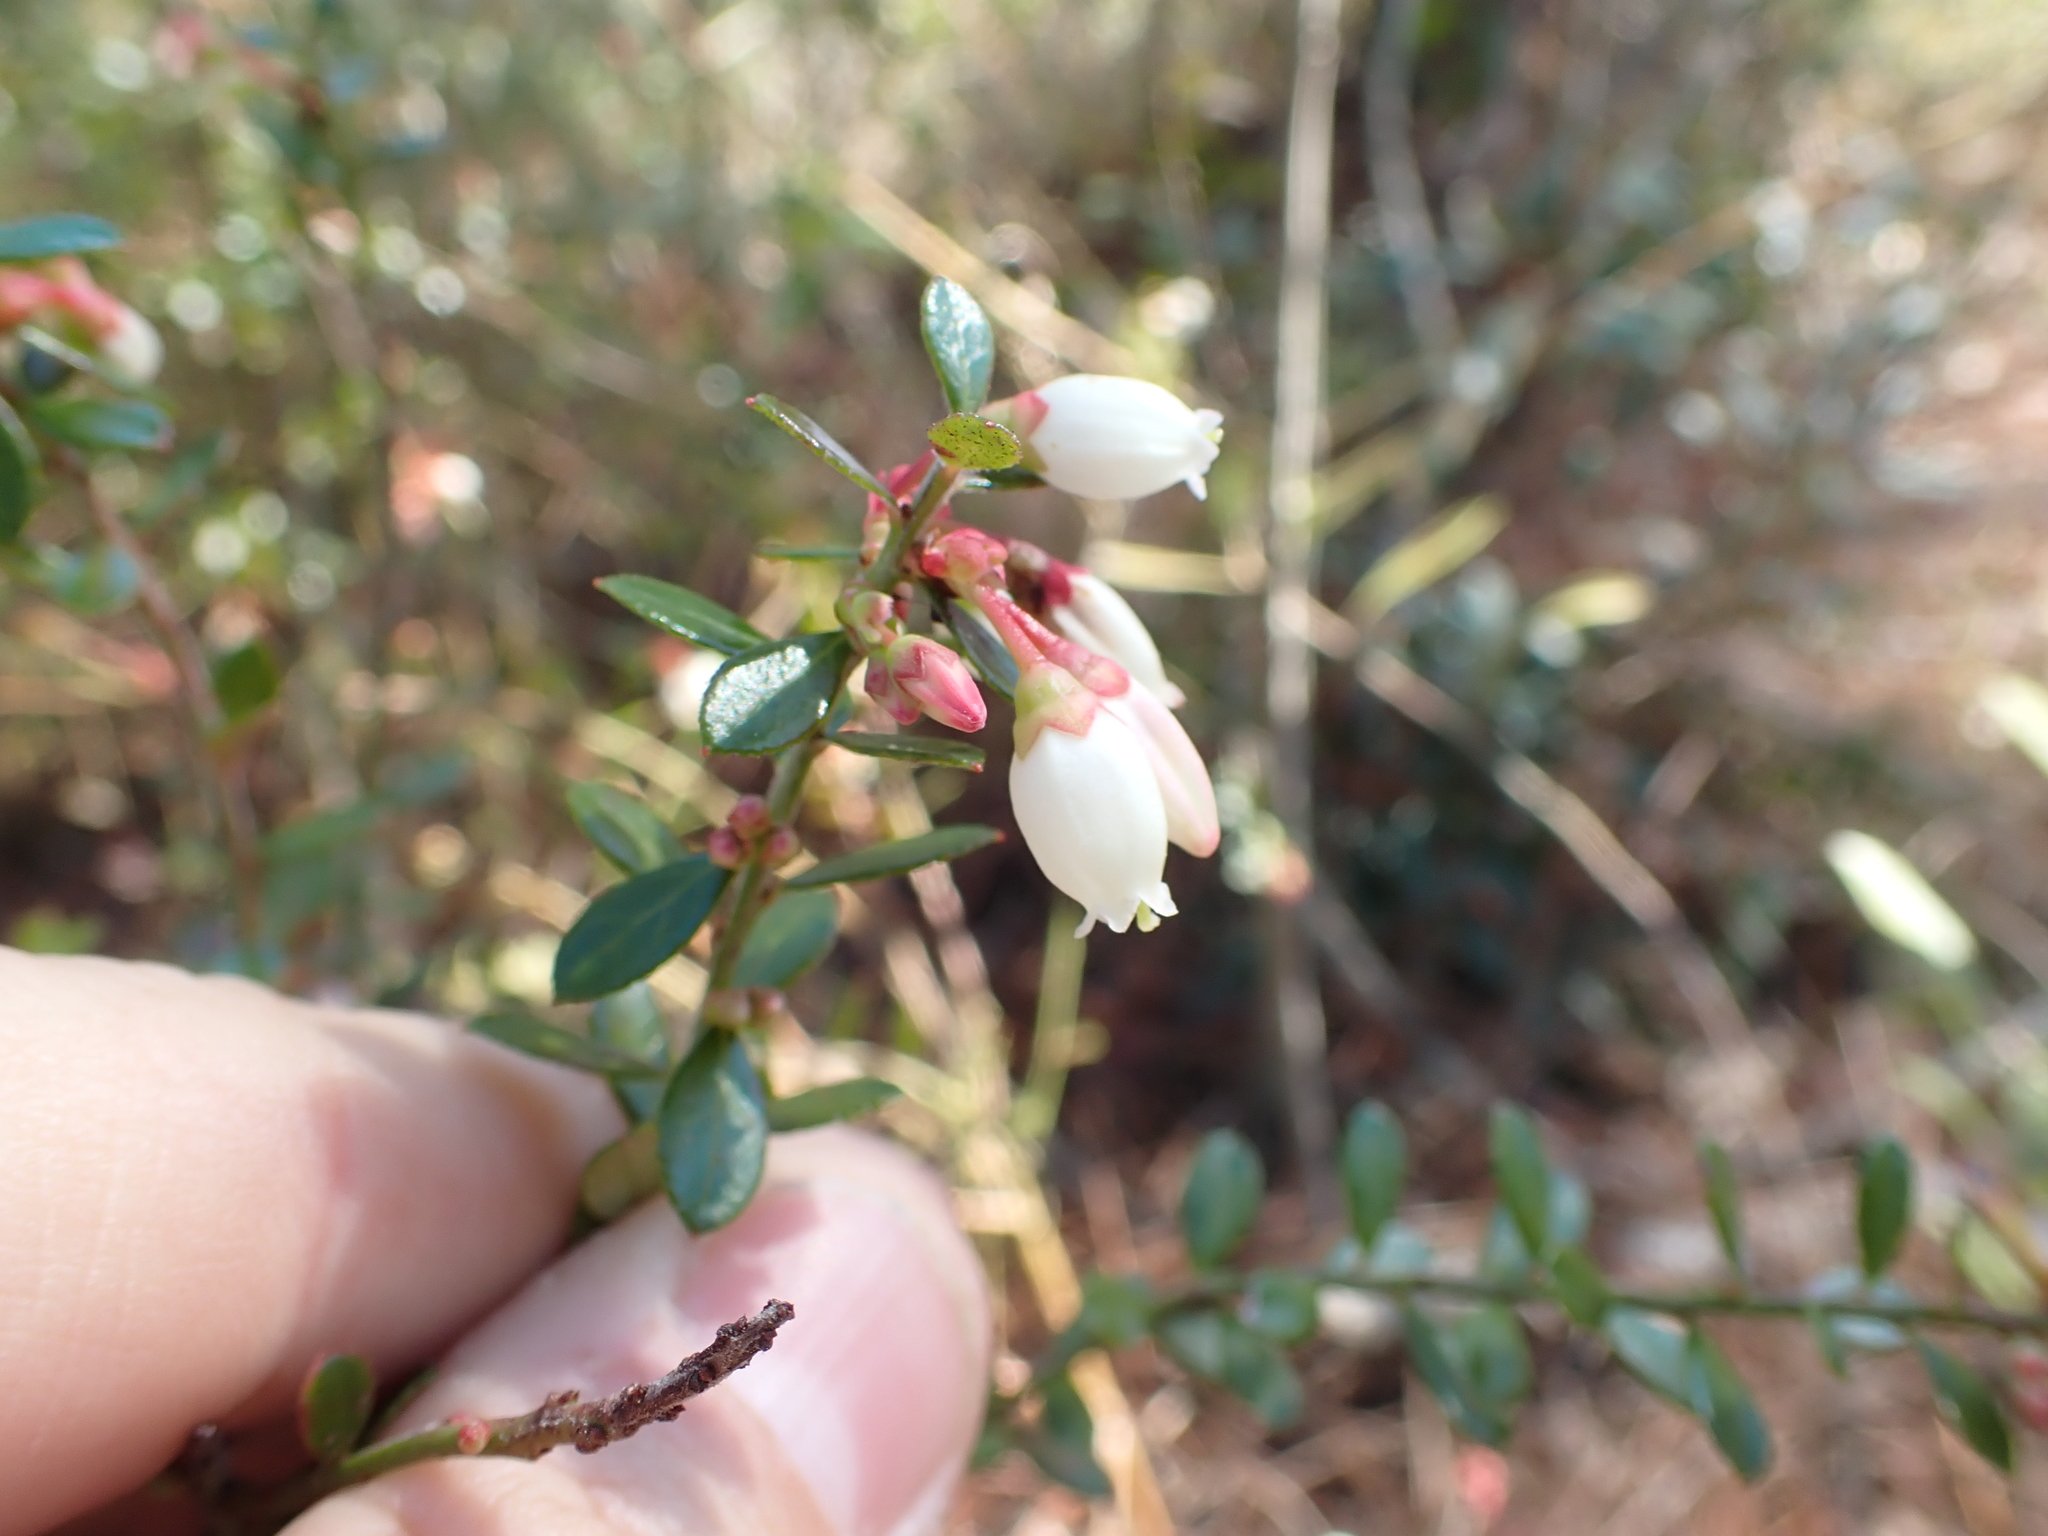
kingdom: Plantae
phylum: Tracheophyta
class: Magnoliopsida
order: Ericales
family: Ericaceae
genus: Vaccinium
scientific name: Vaccinium myrsinites
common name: Evergreen blueberry
